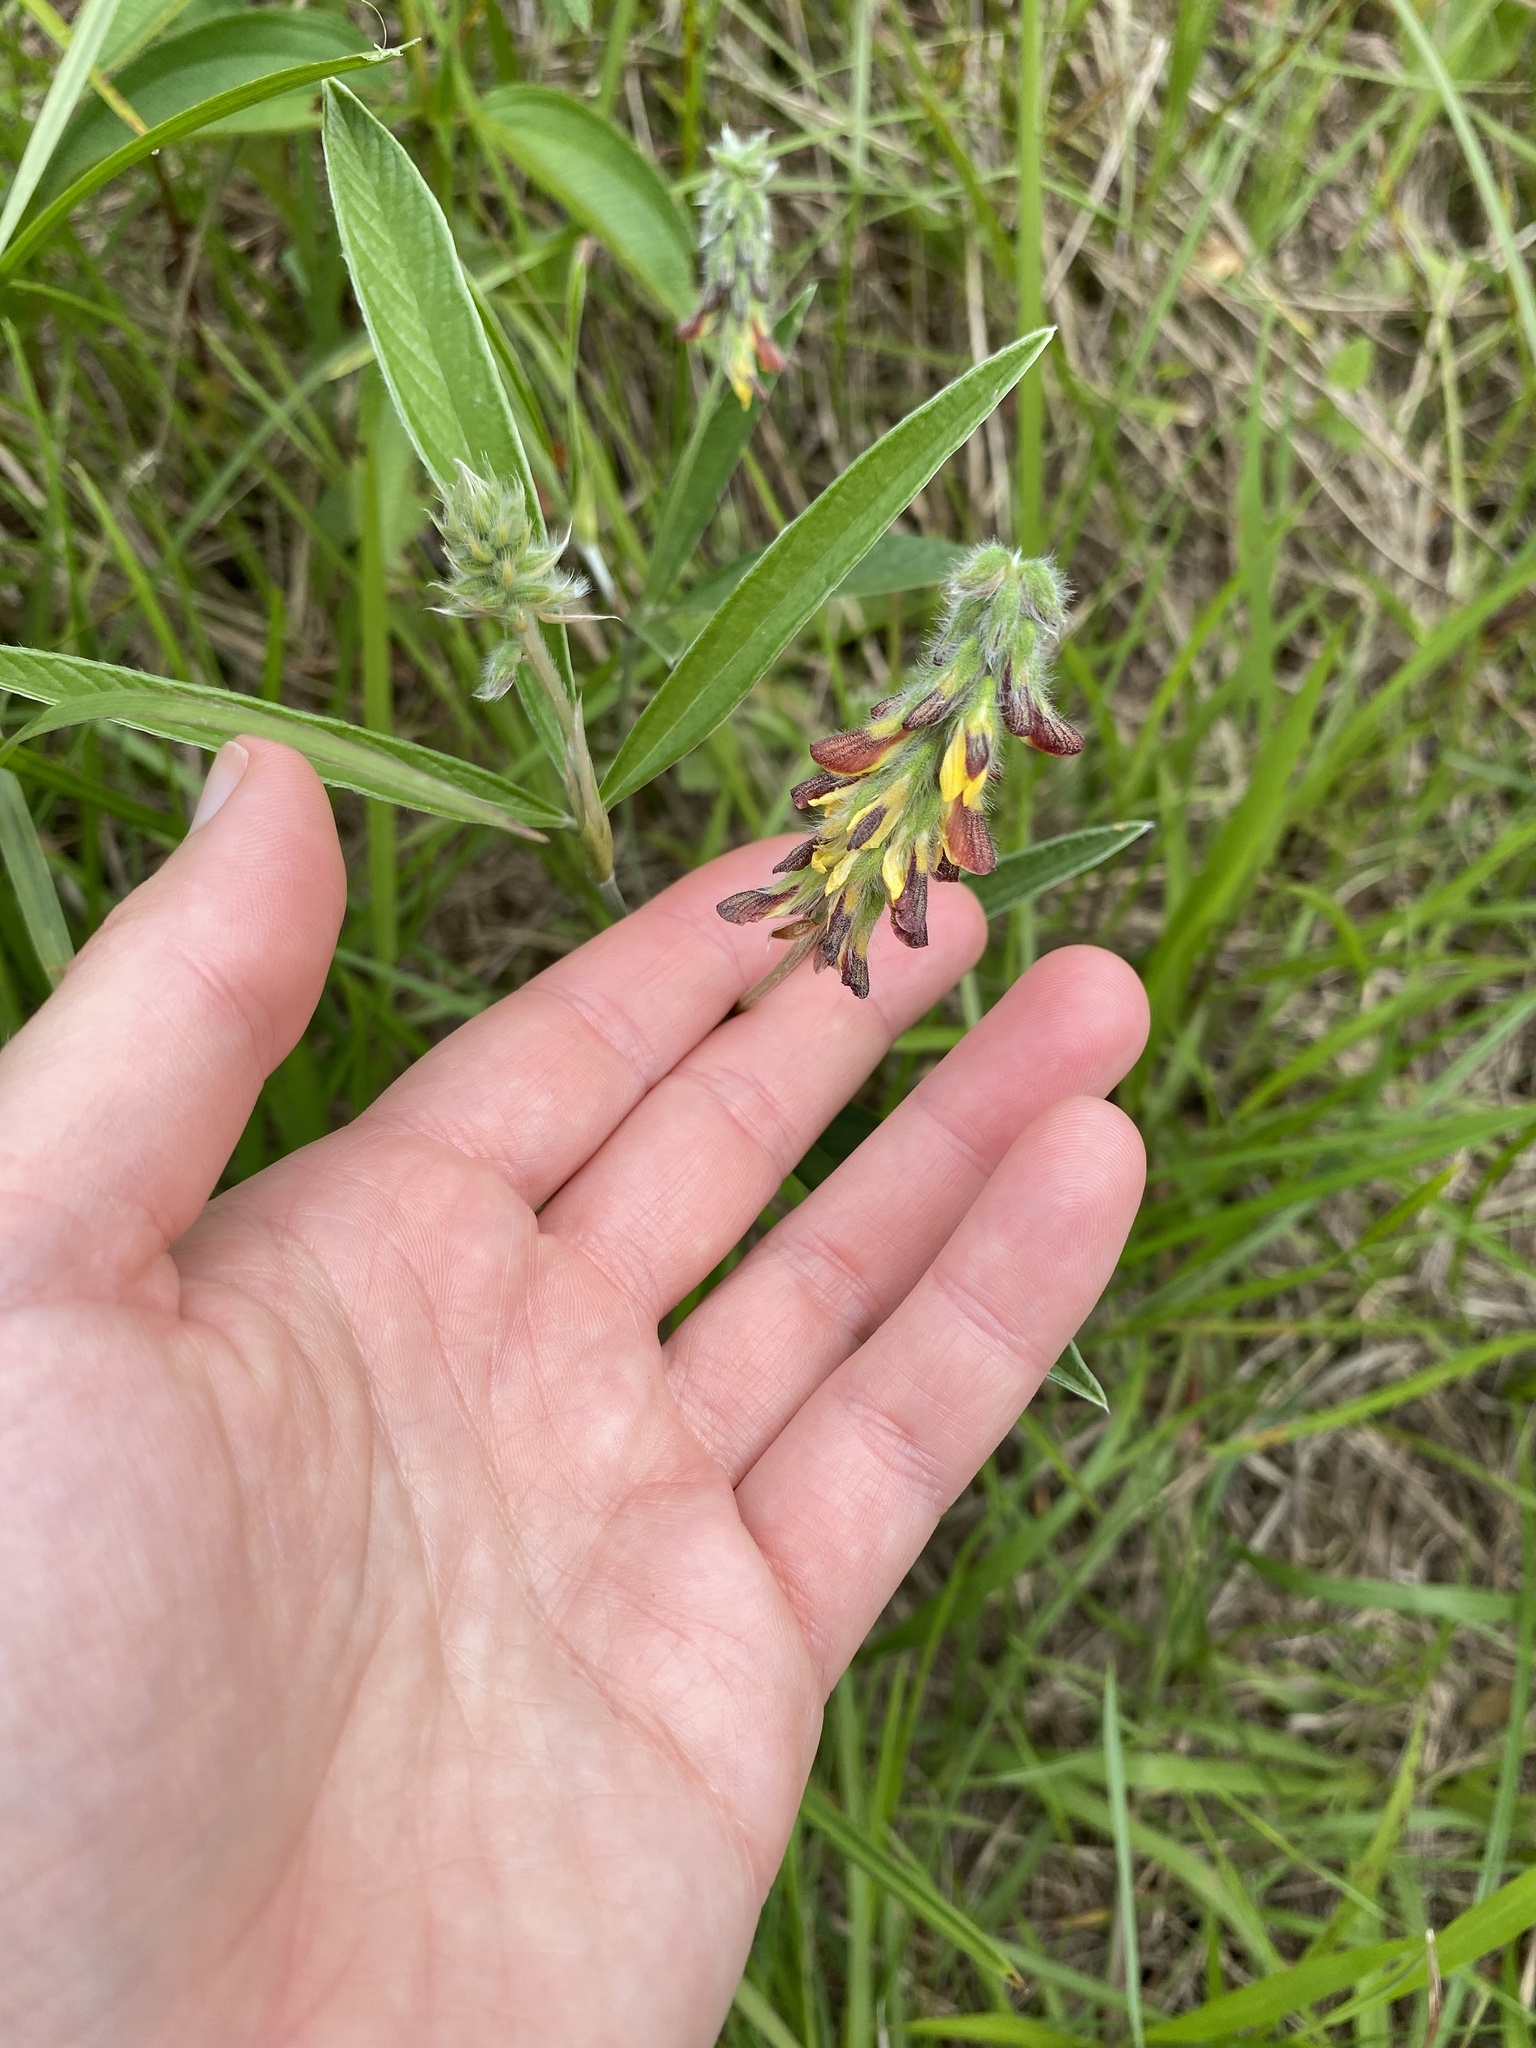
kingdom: Plantae
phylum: Tracheophyta
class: Magnoliopsida
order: Fabales
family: Fabaceae
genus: Eriosema
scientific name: Eriosema salignum
